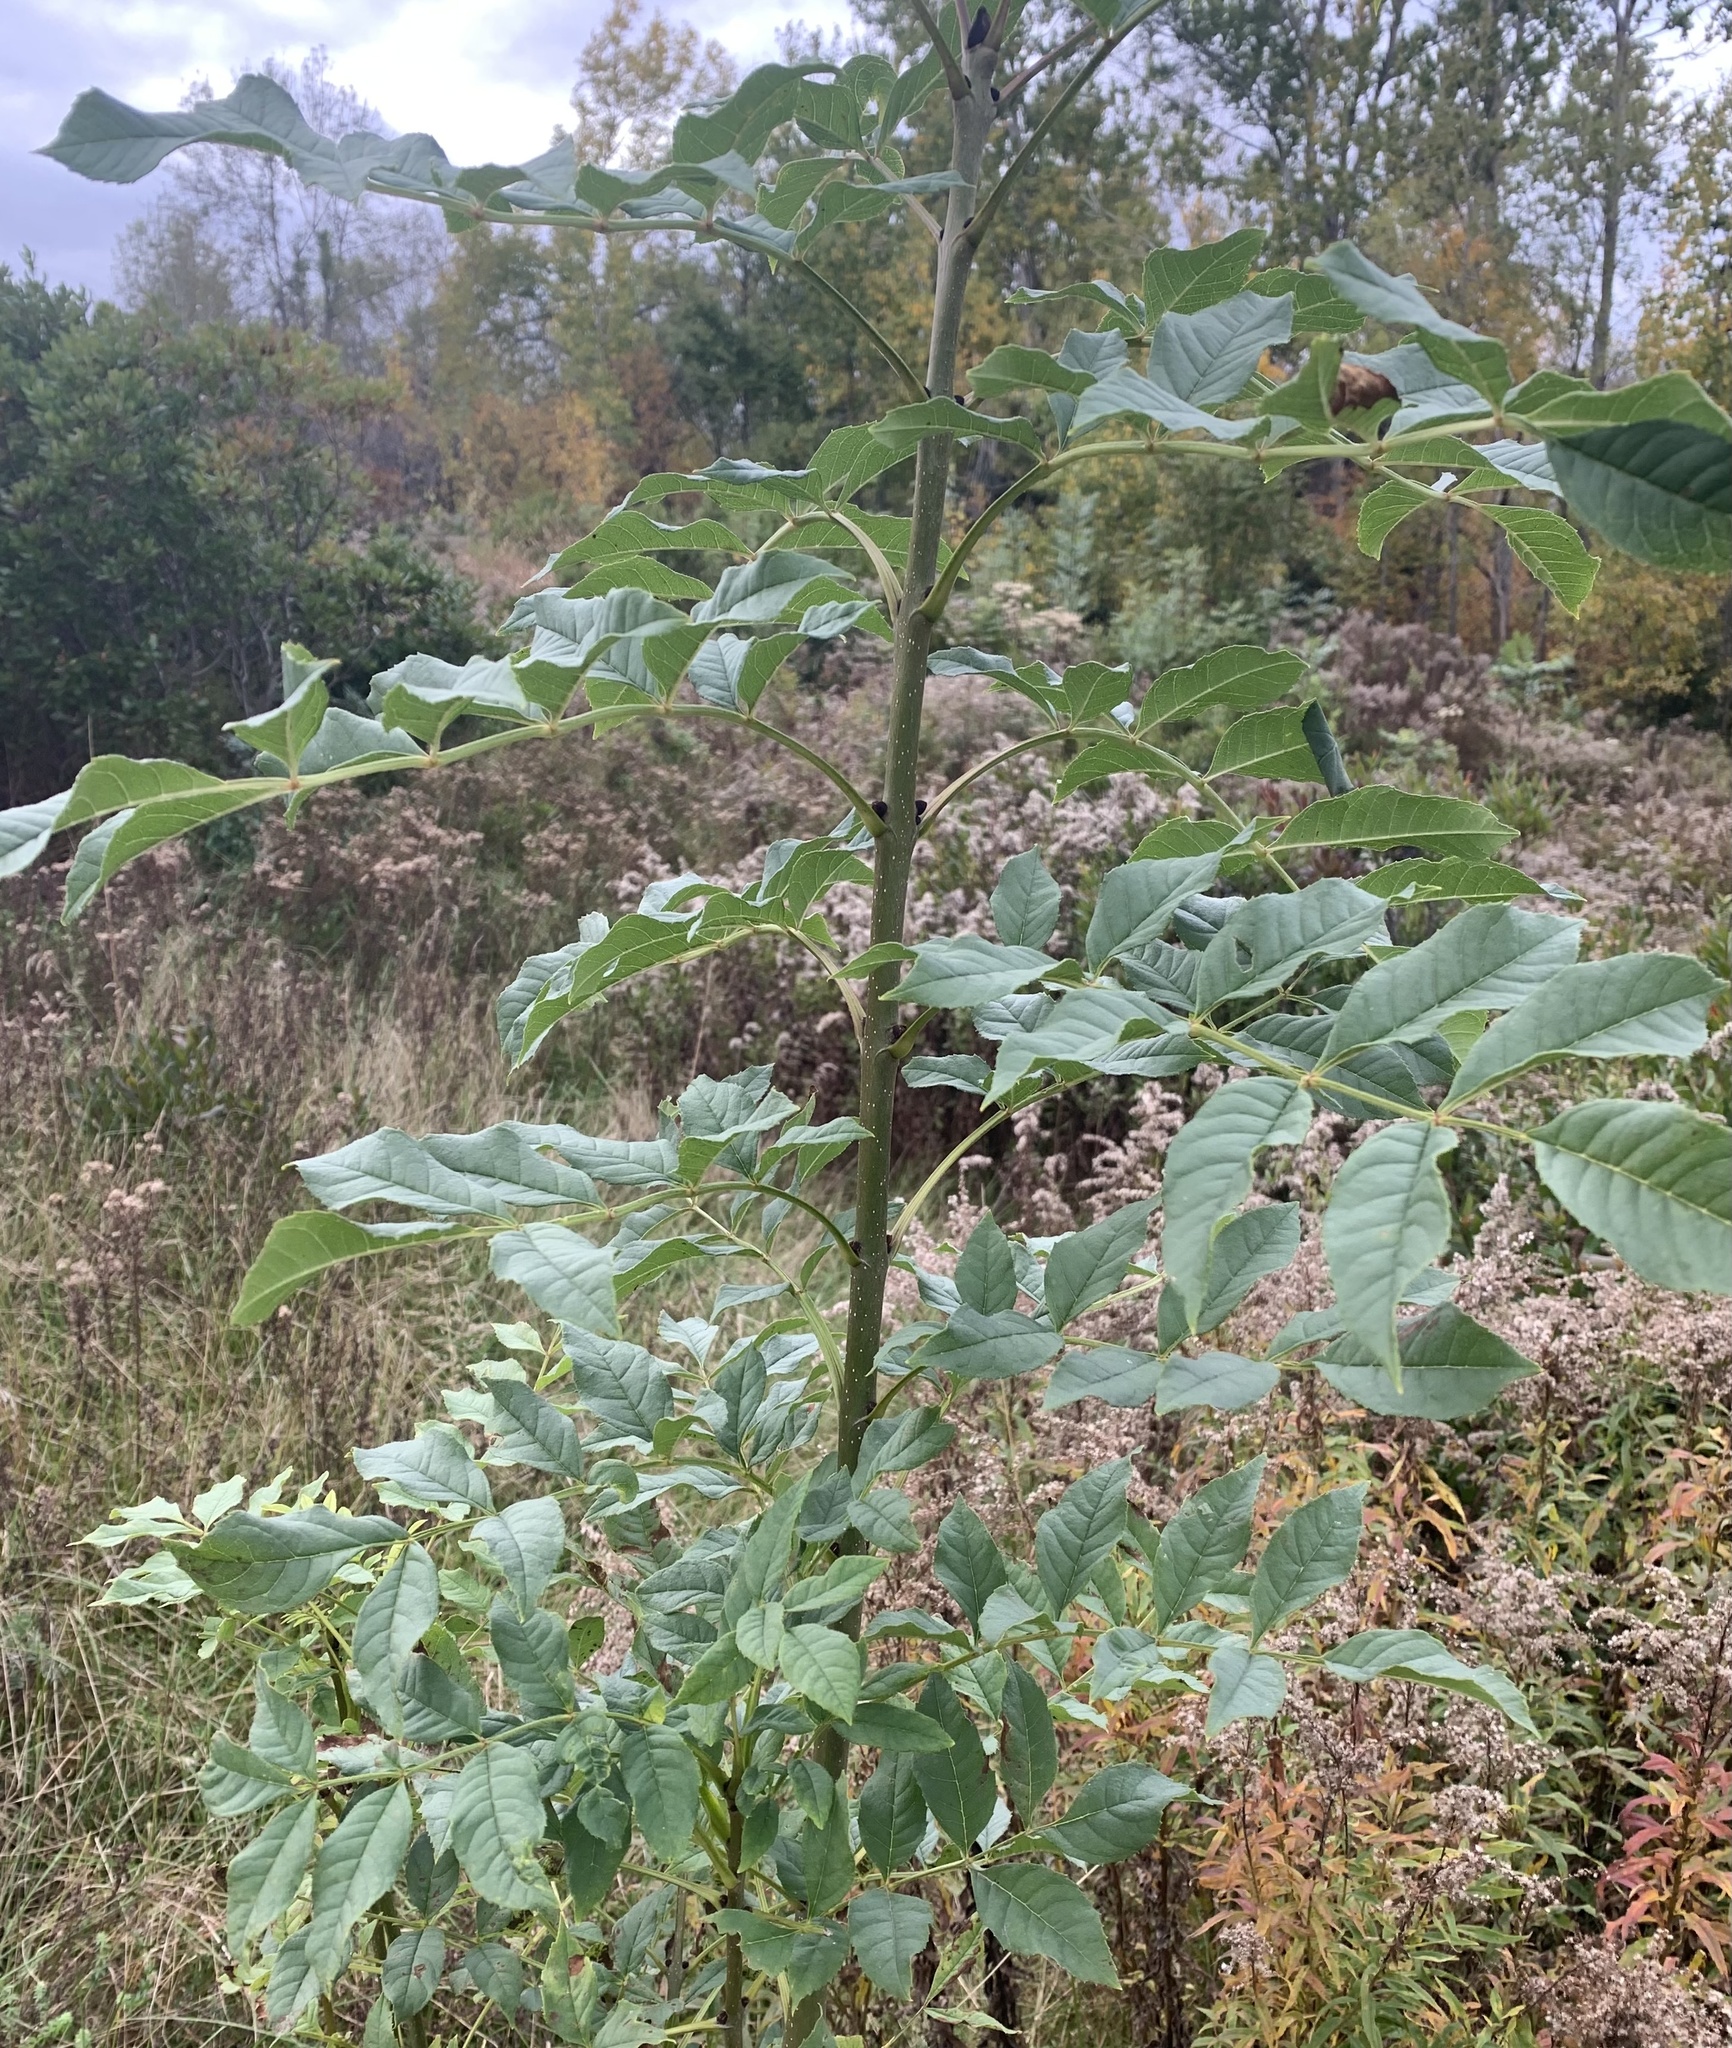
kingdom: Plantae
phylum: Tracheophyta
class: Magnoliopsida
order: Lamiales
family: Oleaceae
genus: Fraxinus
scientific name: Fraxinus excelsior
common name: European ash
